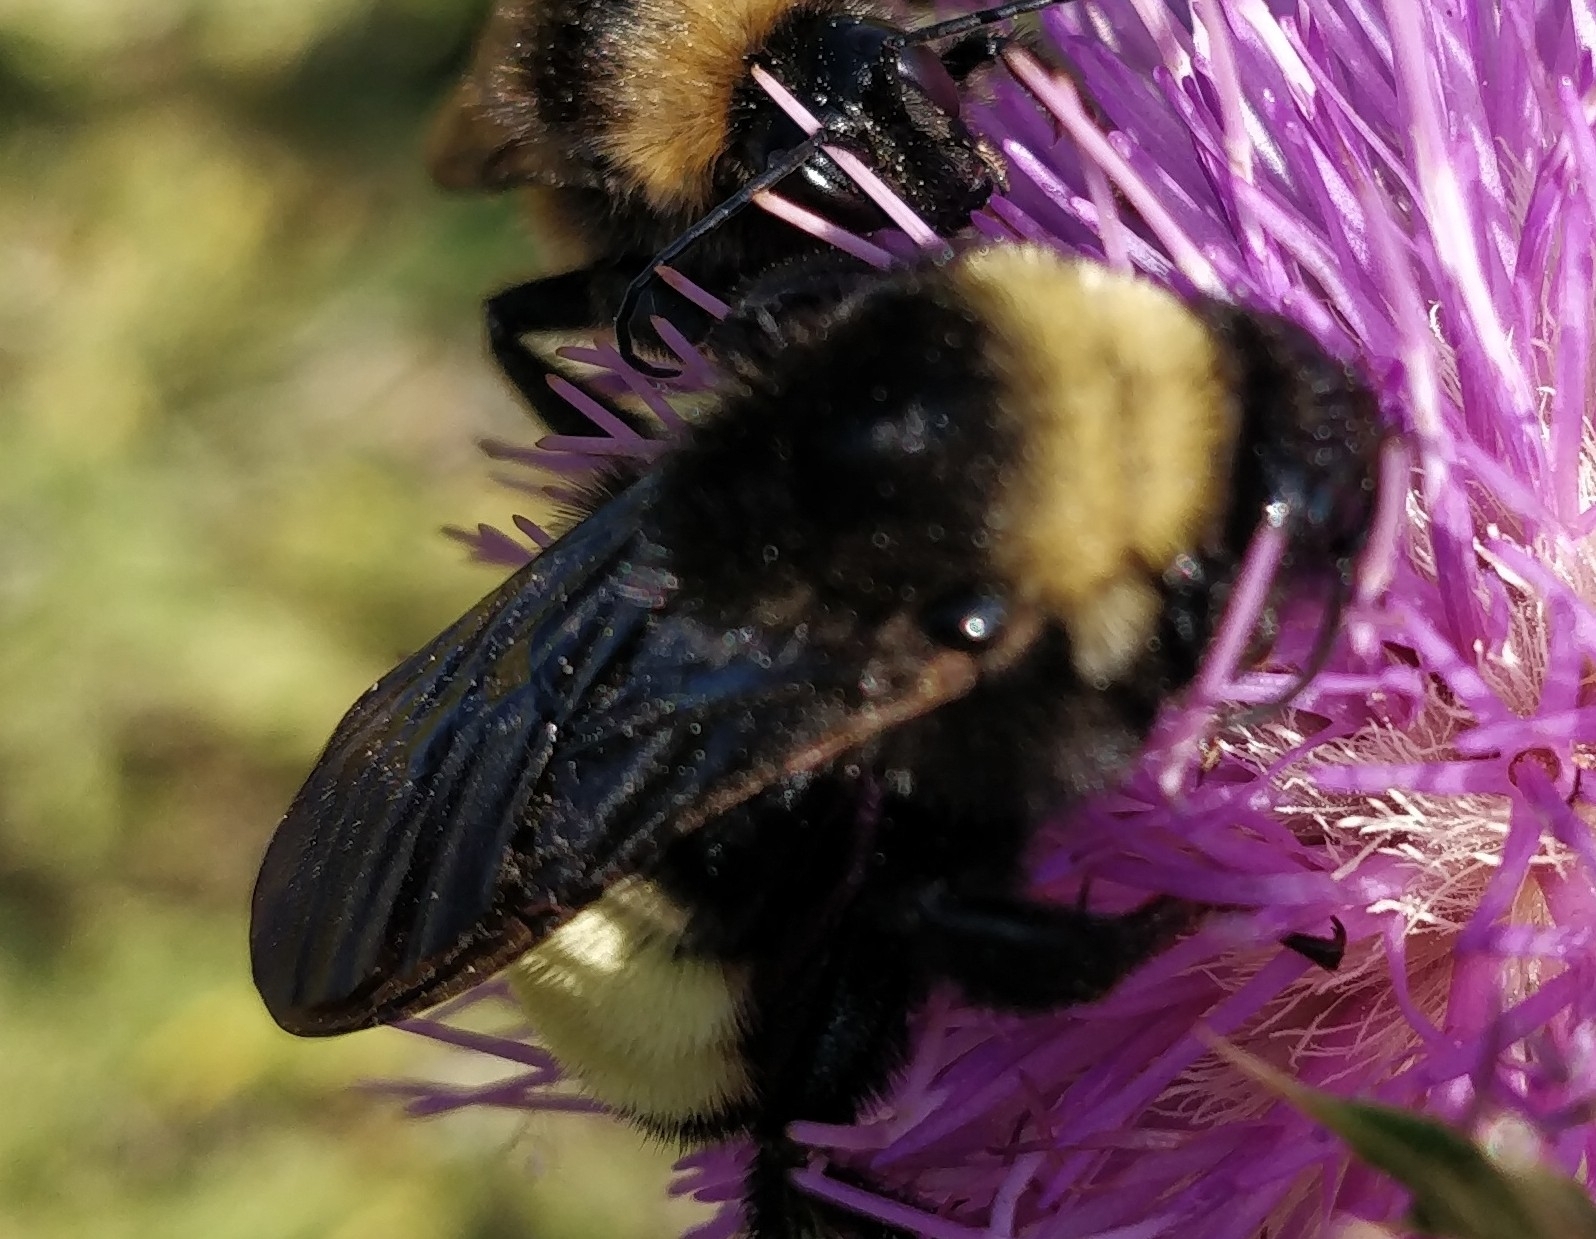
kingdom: Animalia
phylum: Arthropoda
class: Insecta
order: Hymenoptera
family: Apidae
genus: Bombus
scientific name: Bombus pensylvanicus
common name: Bumble bee
